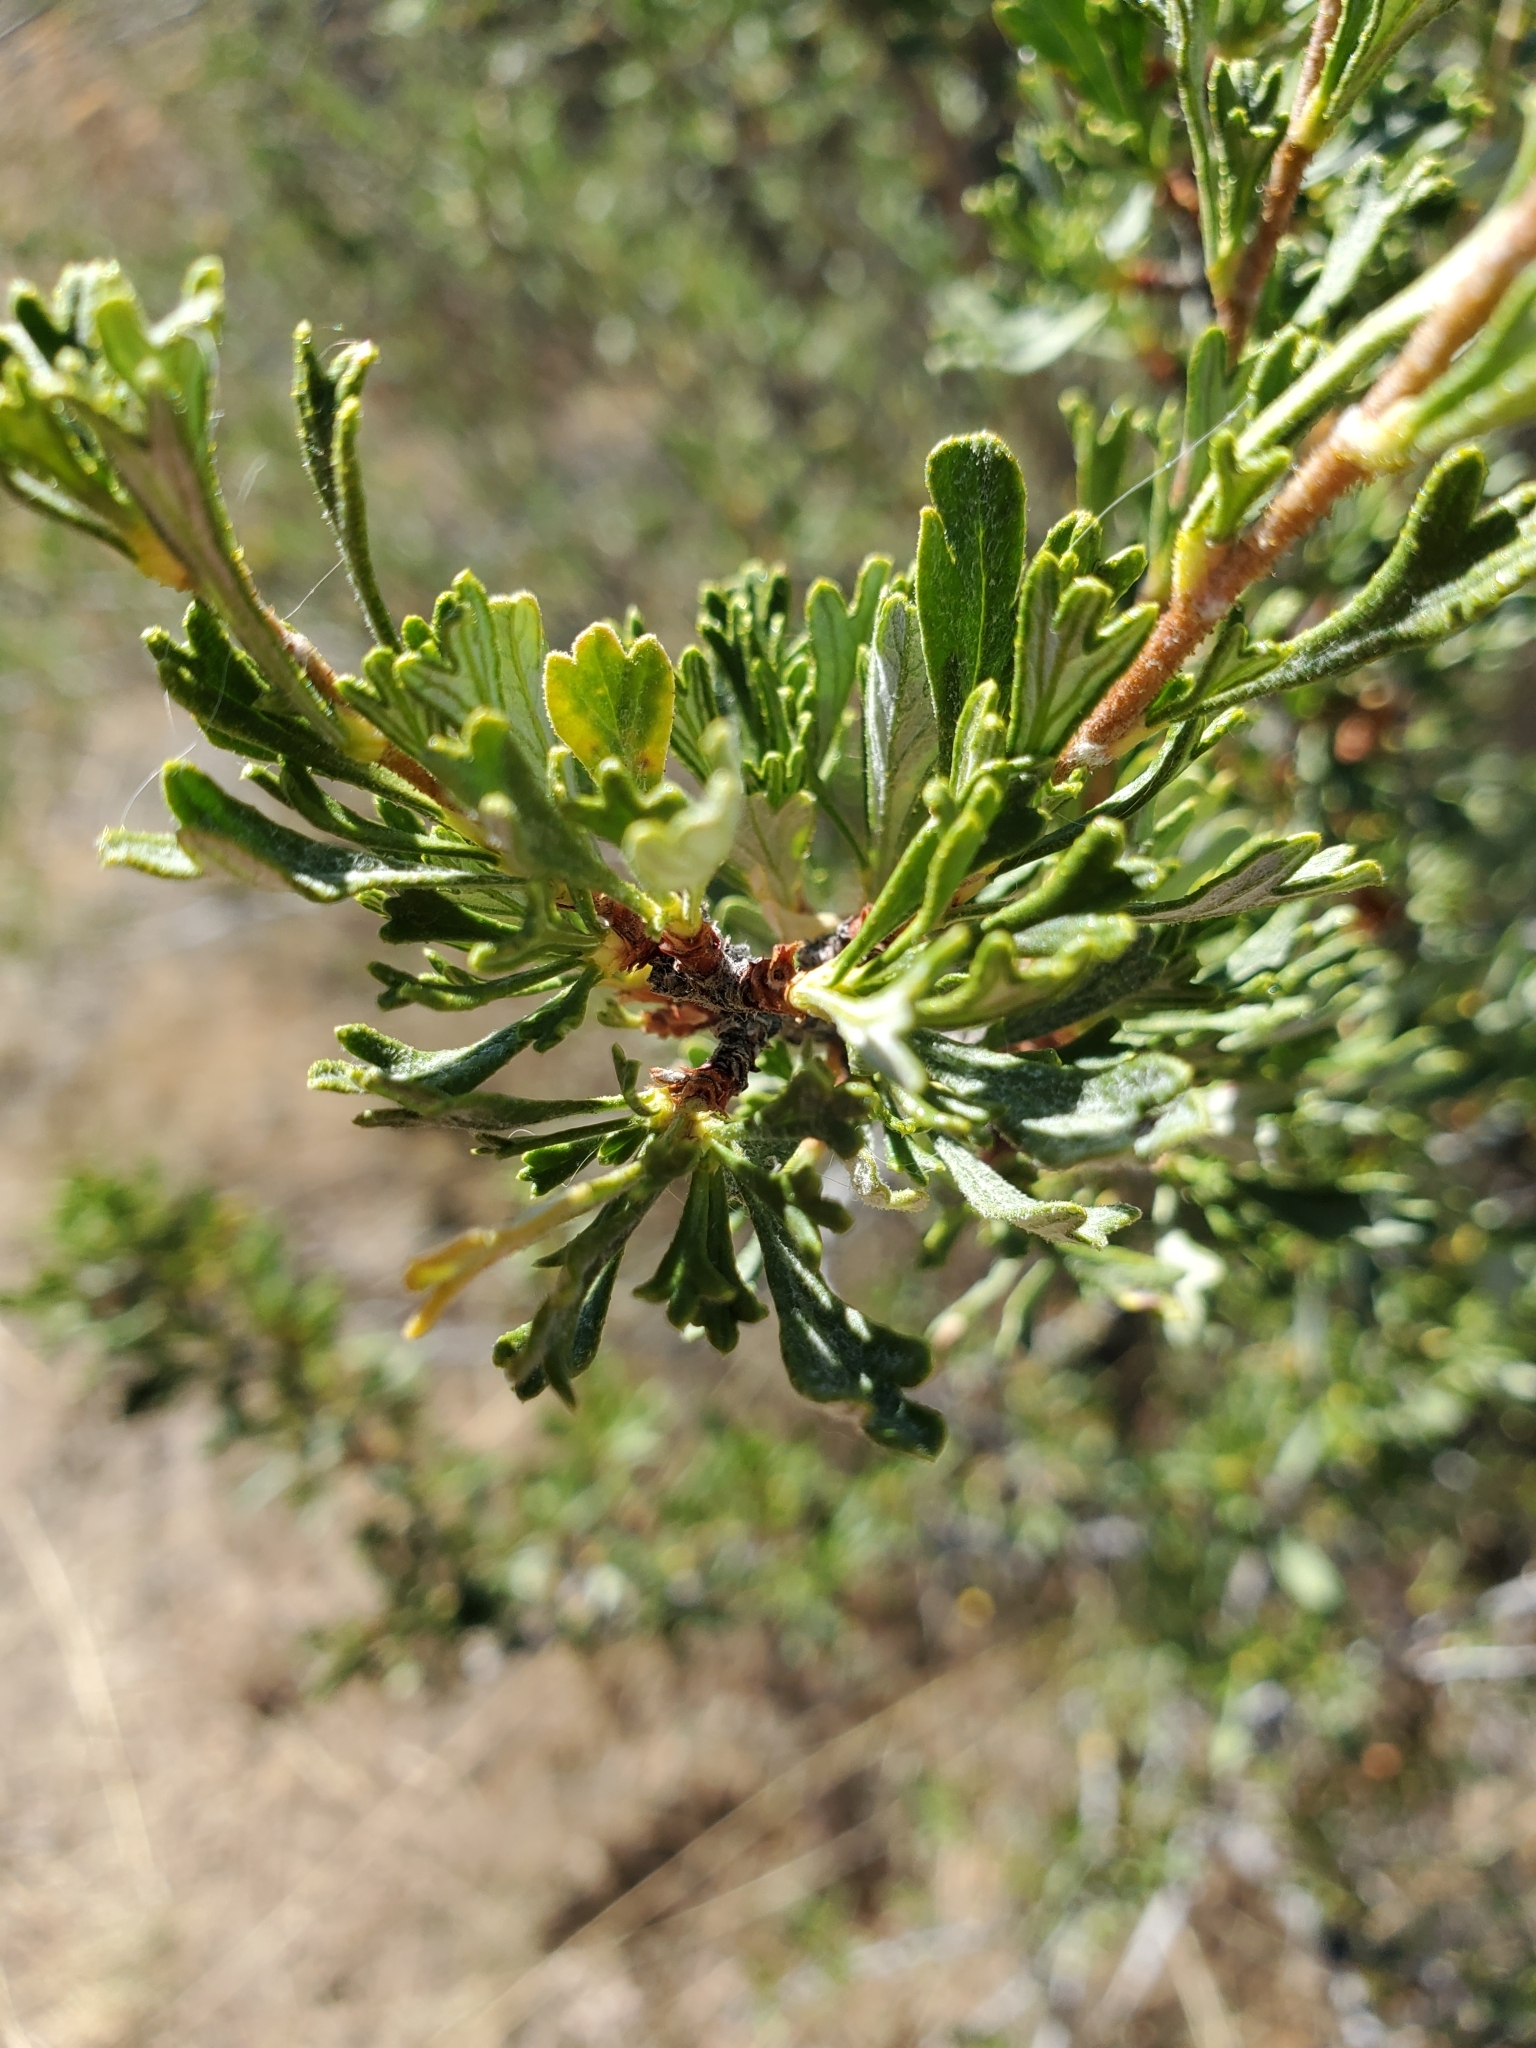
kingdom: Plantae
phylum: Tracheophyta
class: Magnoliopsida
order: Rosales
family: Rosaceae
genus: Purshia
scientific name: Purshia tridentata
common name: Antelope bitterbrush
